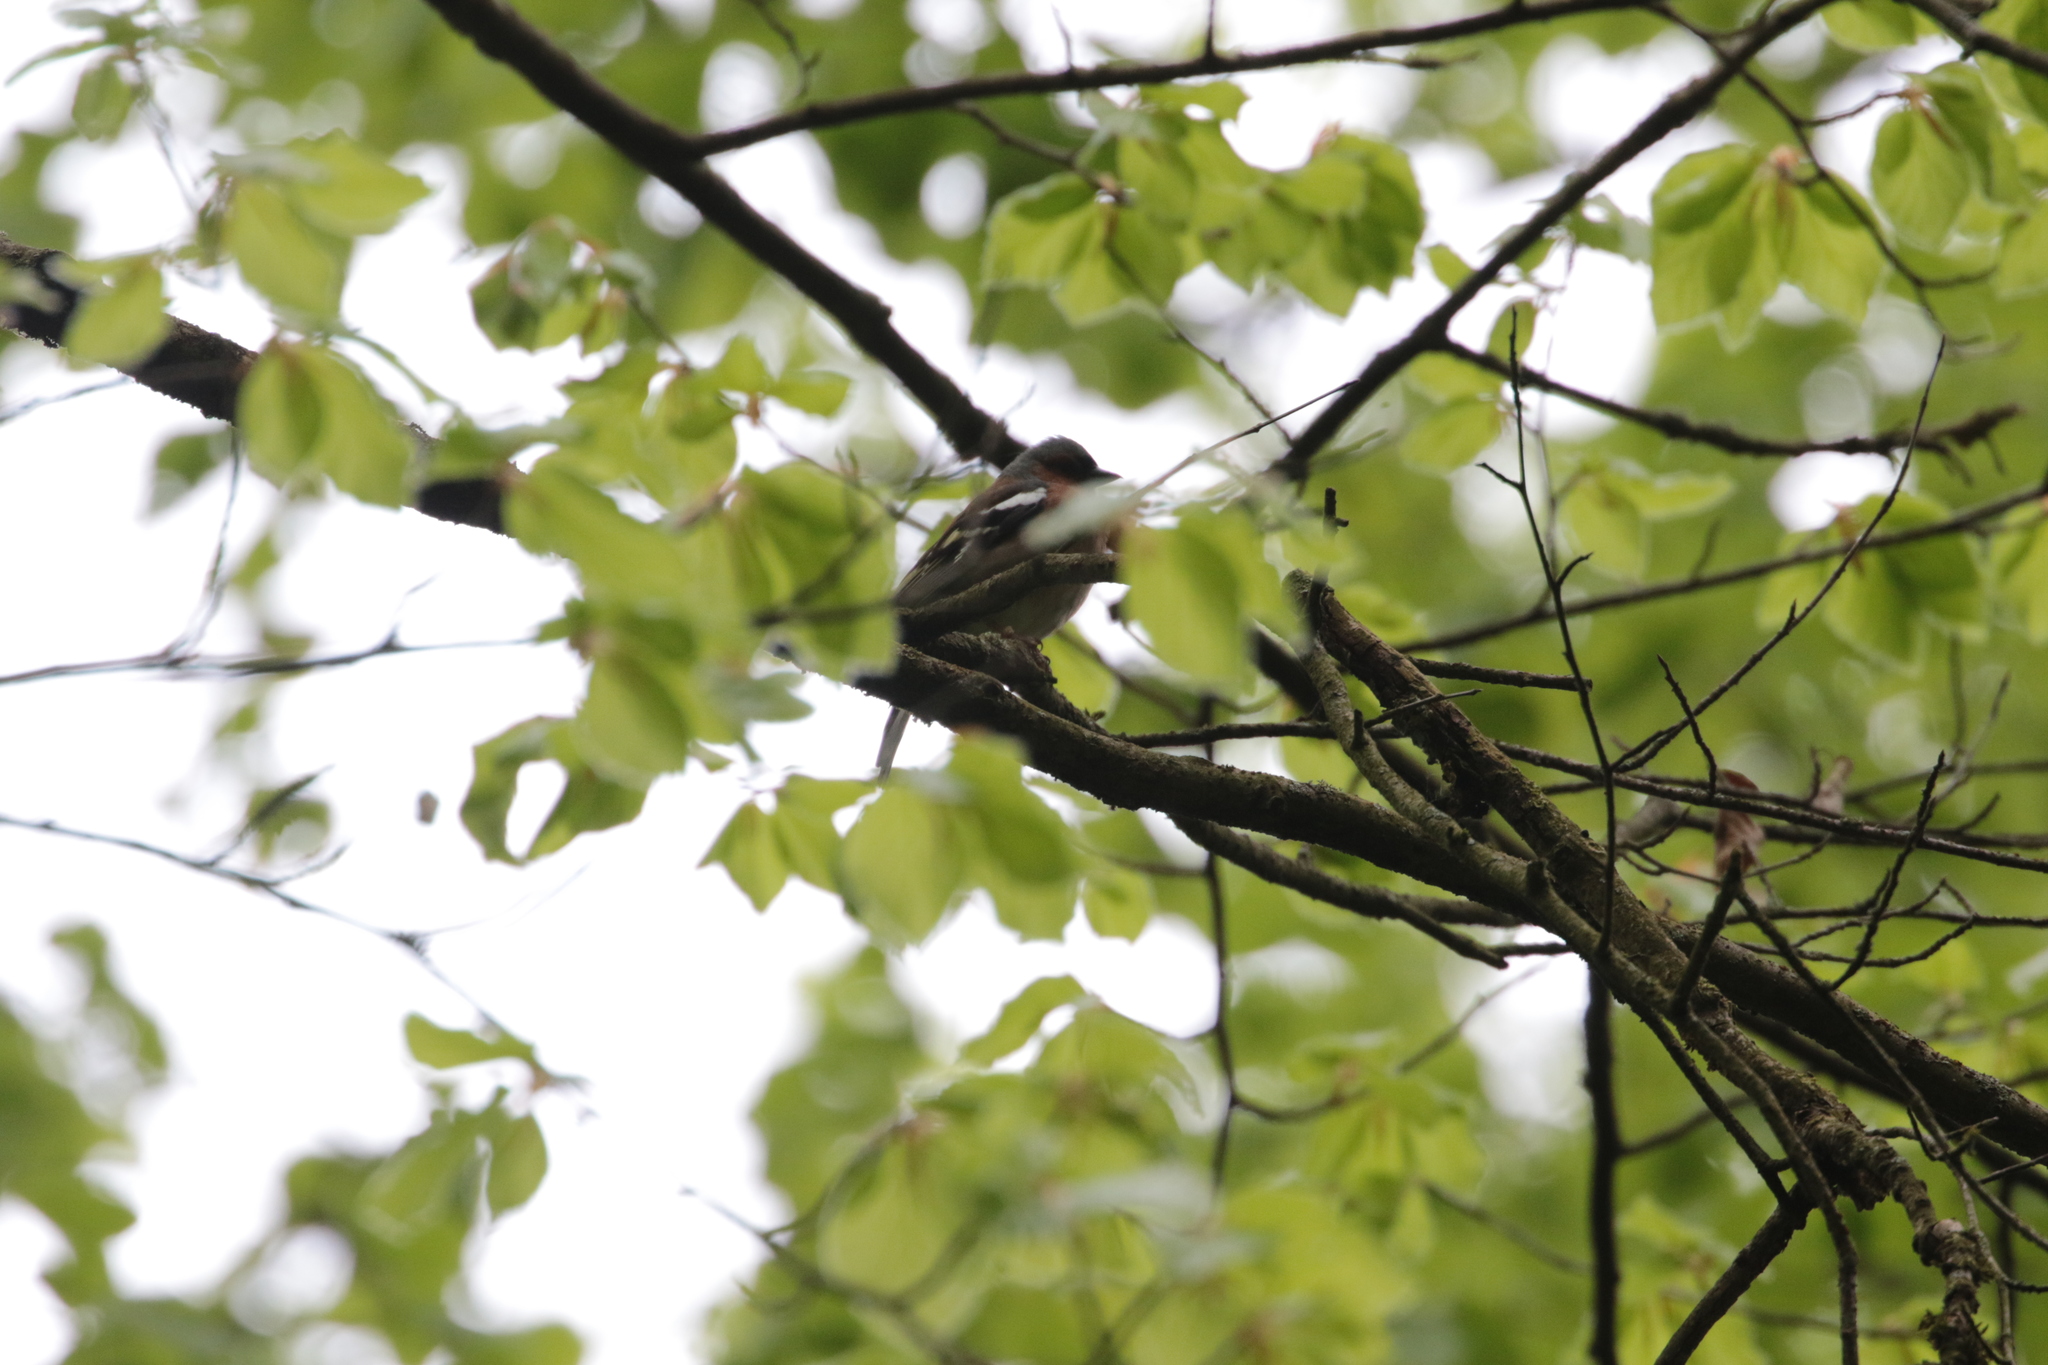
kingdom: Animalia
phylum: Chordata
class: Aves
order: Passeriformes
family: Fringillidae
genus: Fringilla
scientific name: Fringilla coelebs
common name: Common chaffinch
